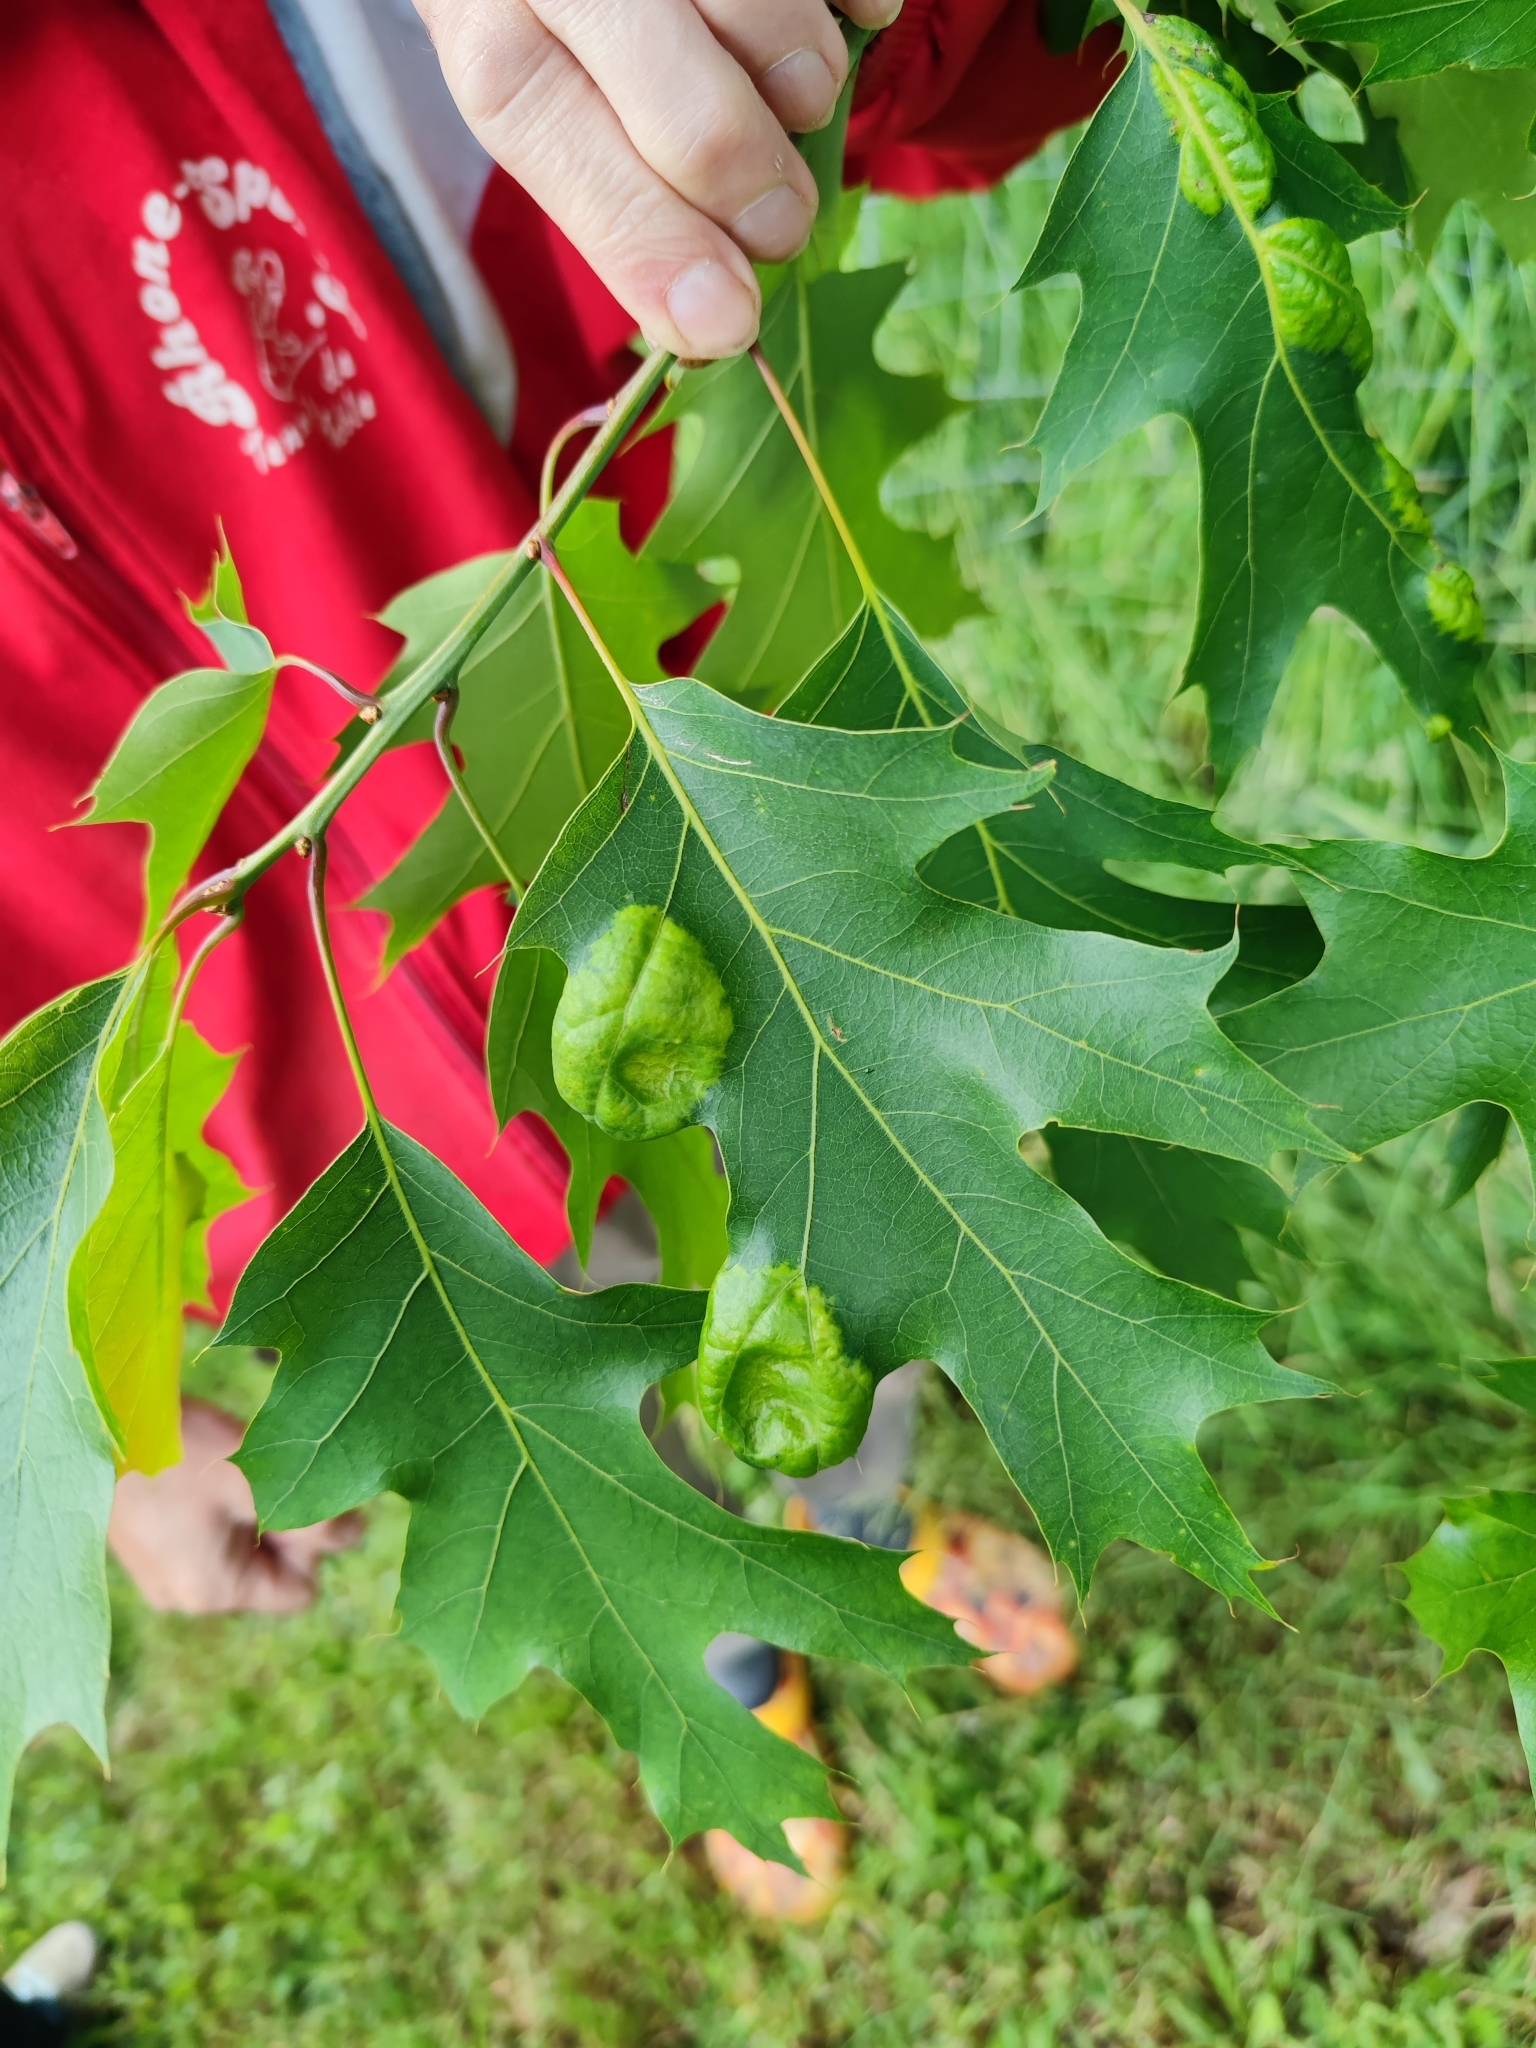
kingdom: Fungi
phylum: Ascomycota
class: Taphrinomycetes
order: Taphrinales
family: Taphrinaceae
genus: Taphrina
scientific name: Taphrina caerulescens
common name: Oak leaf blister
